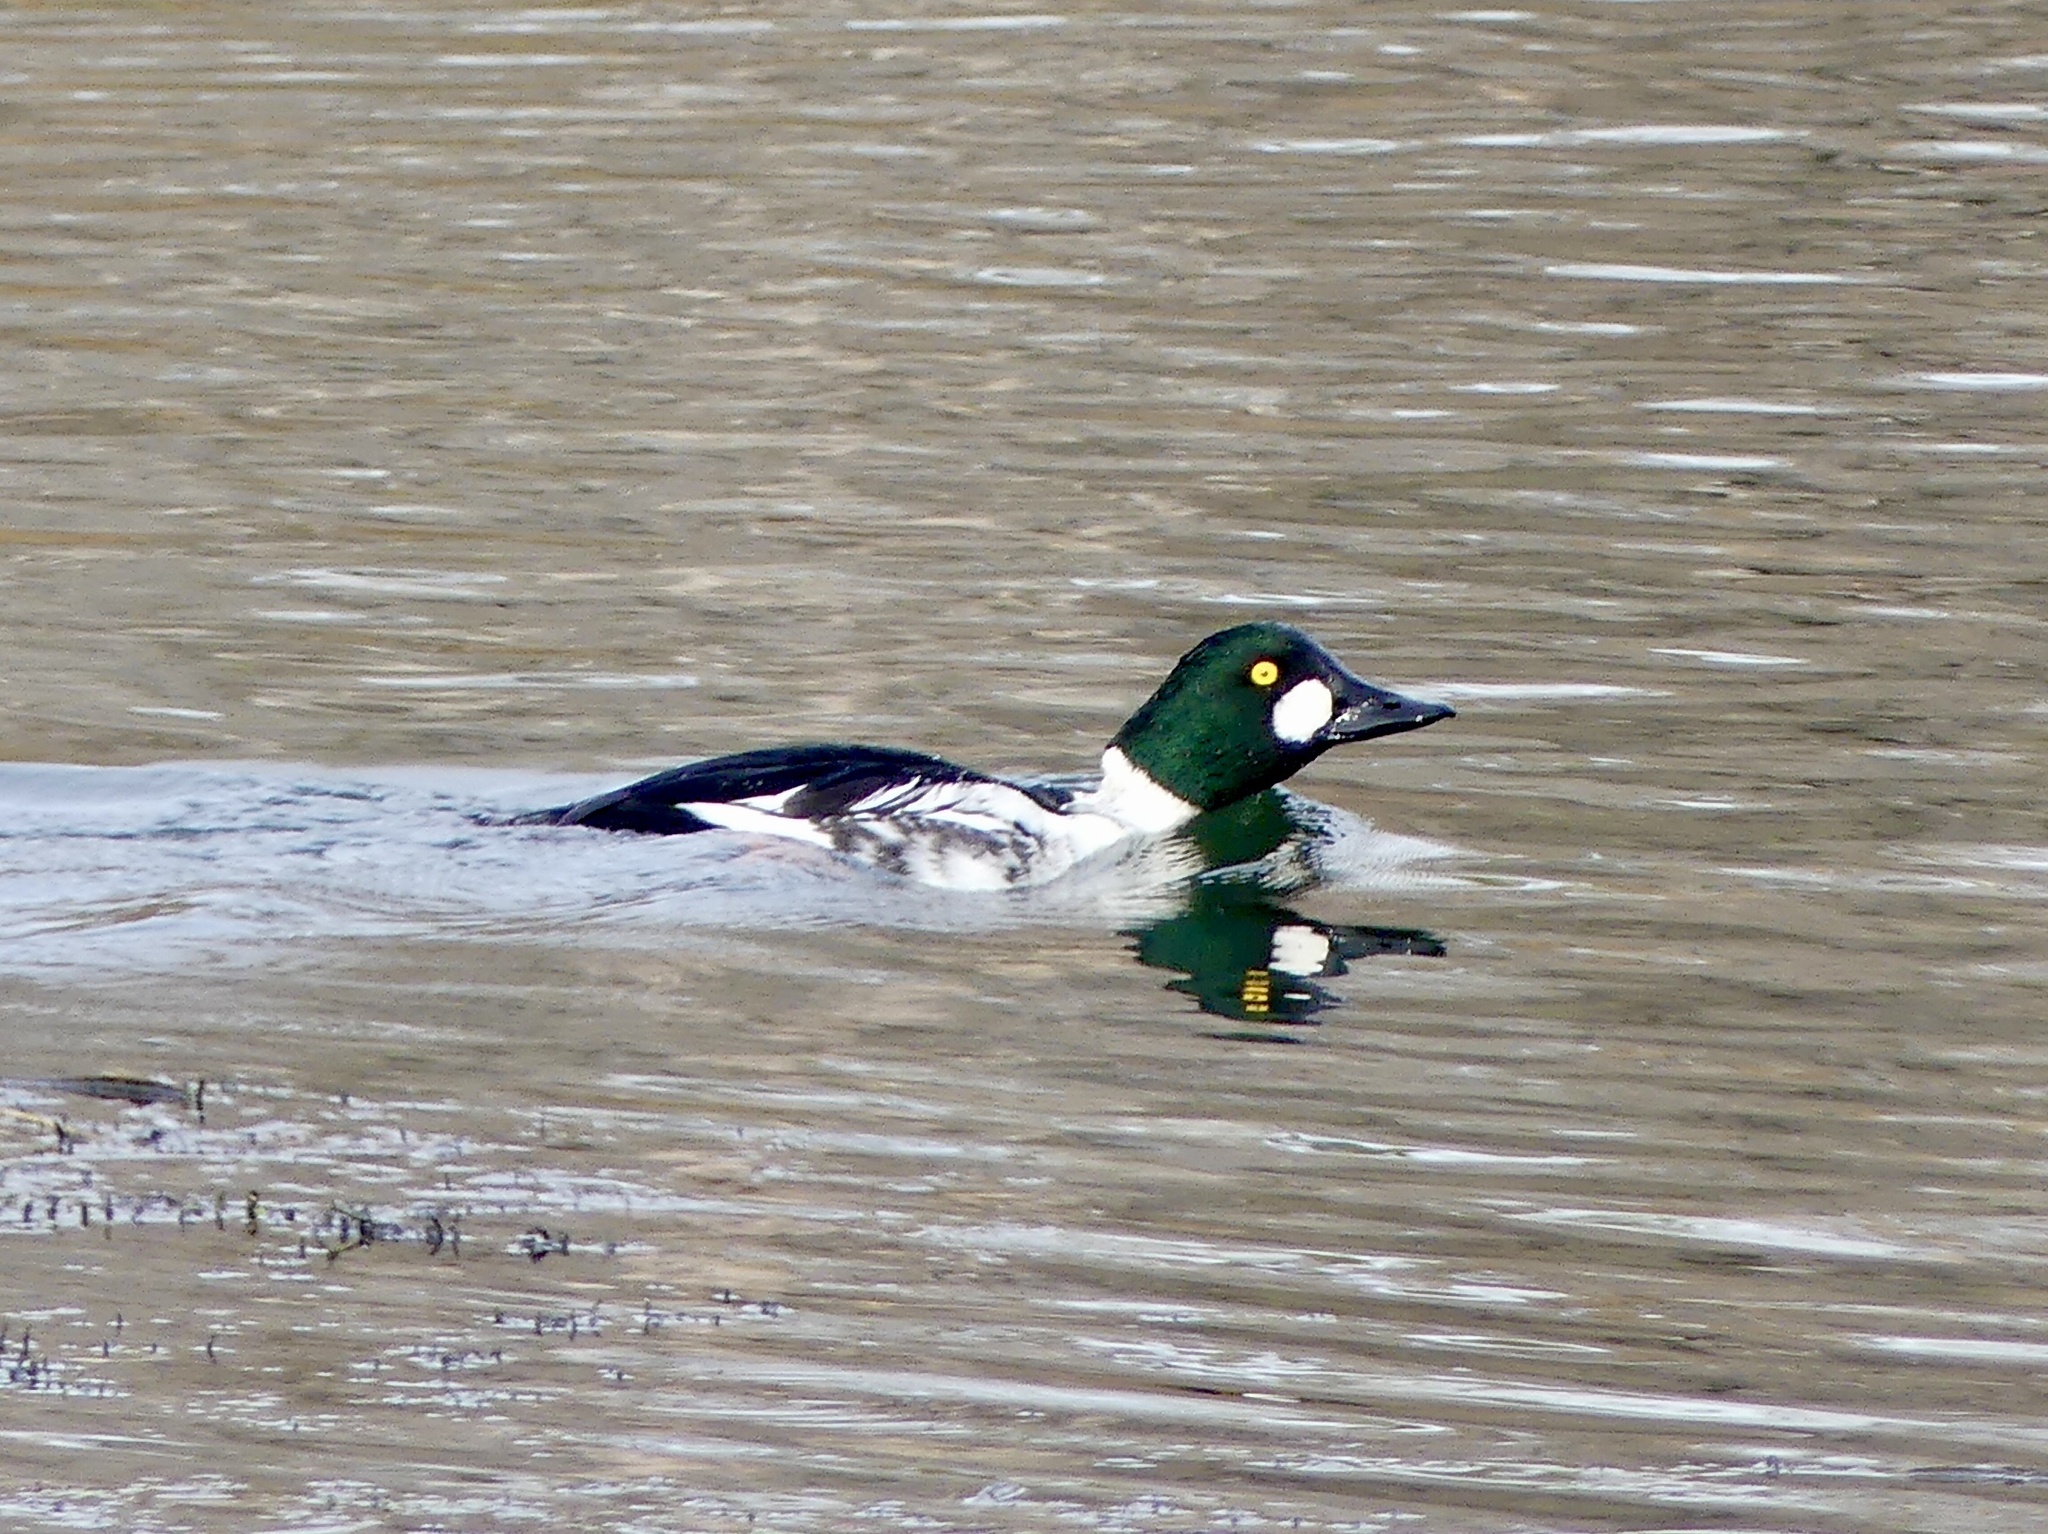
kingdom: Animalia
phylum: Chordata
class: Aves
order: Anseriformes
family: Anatidae
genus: Bucephala
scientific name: Bucephala clangula
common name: Common goldeneye
